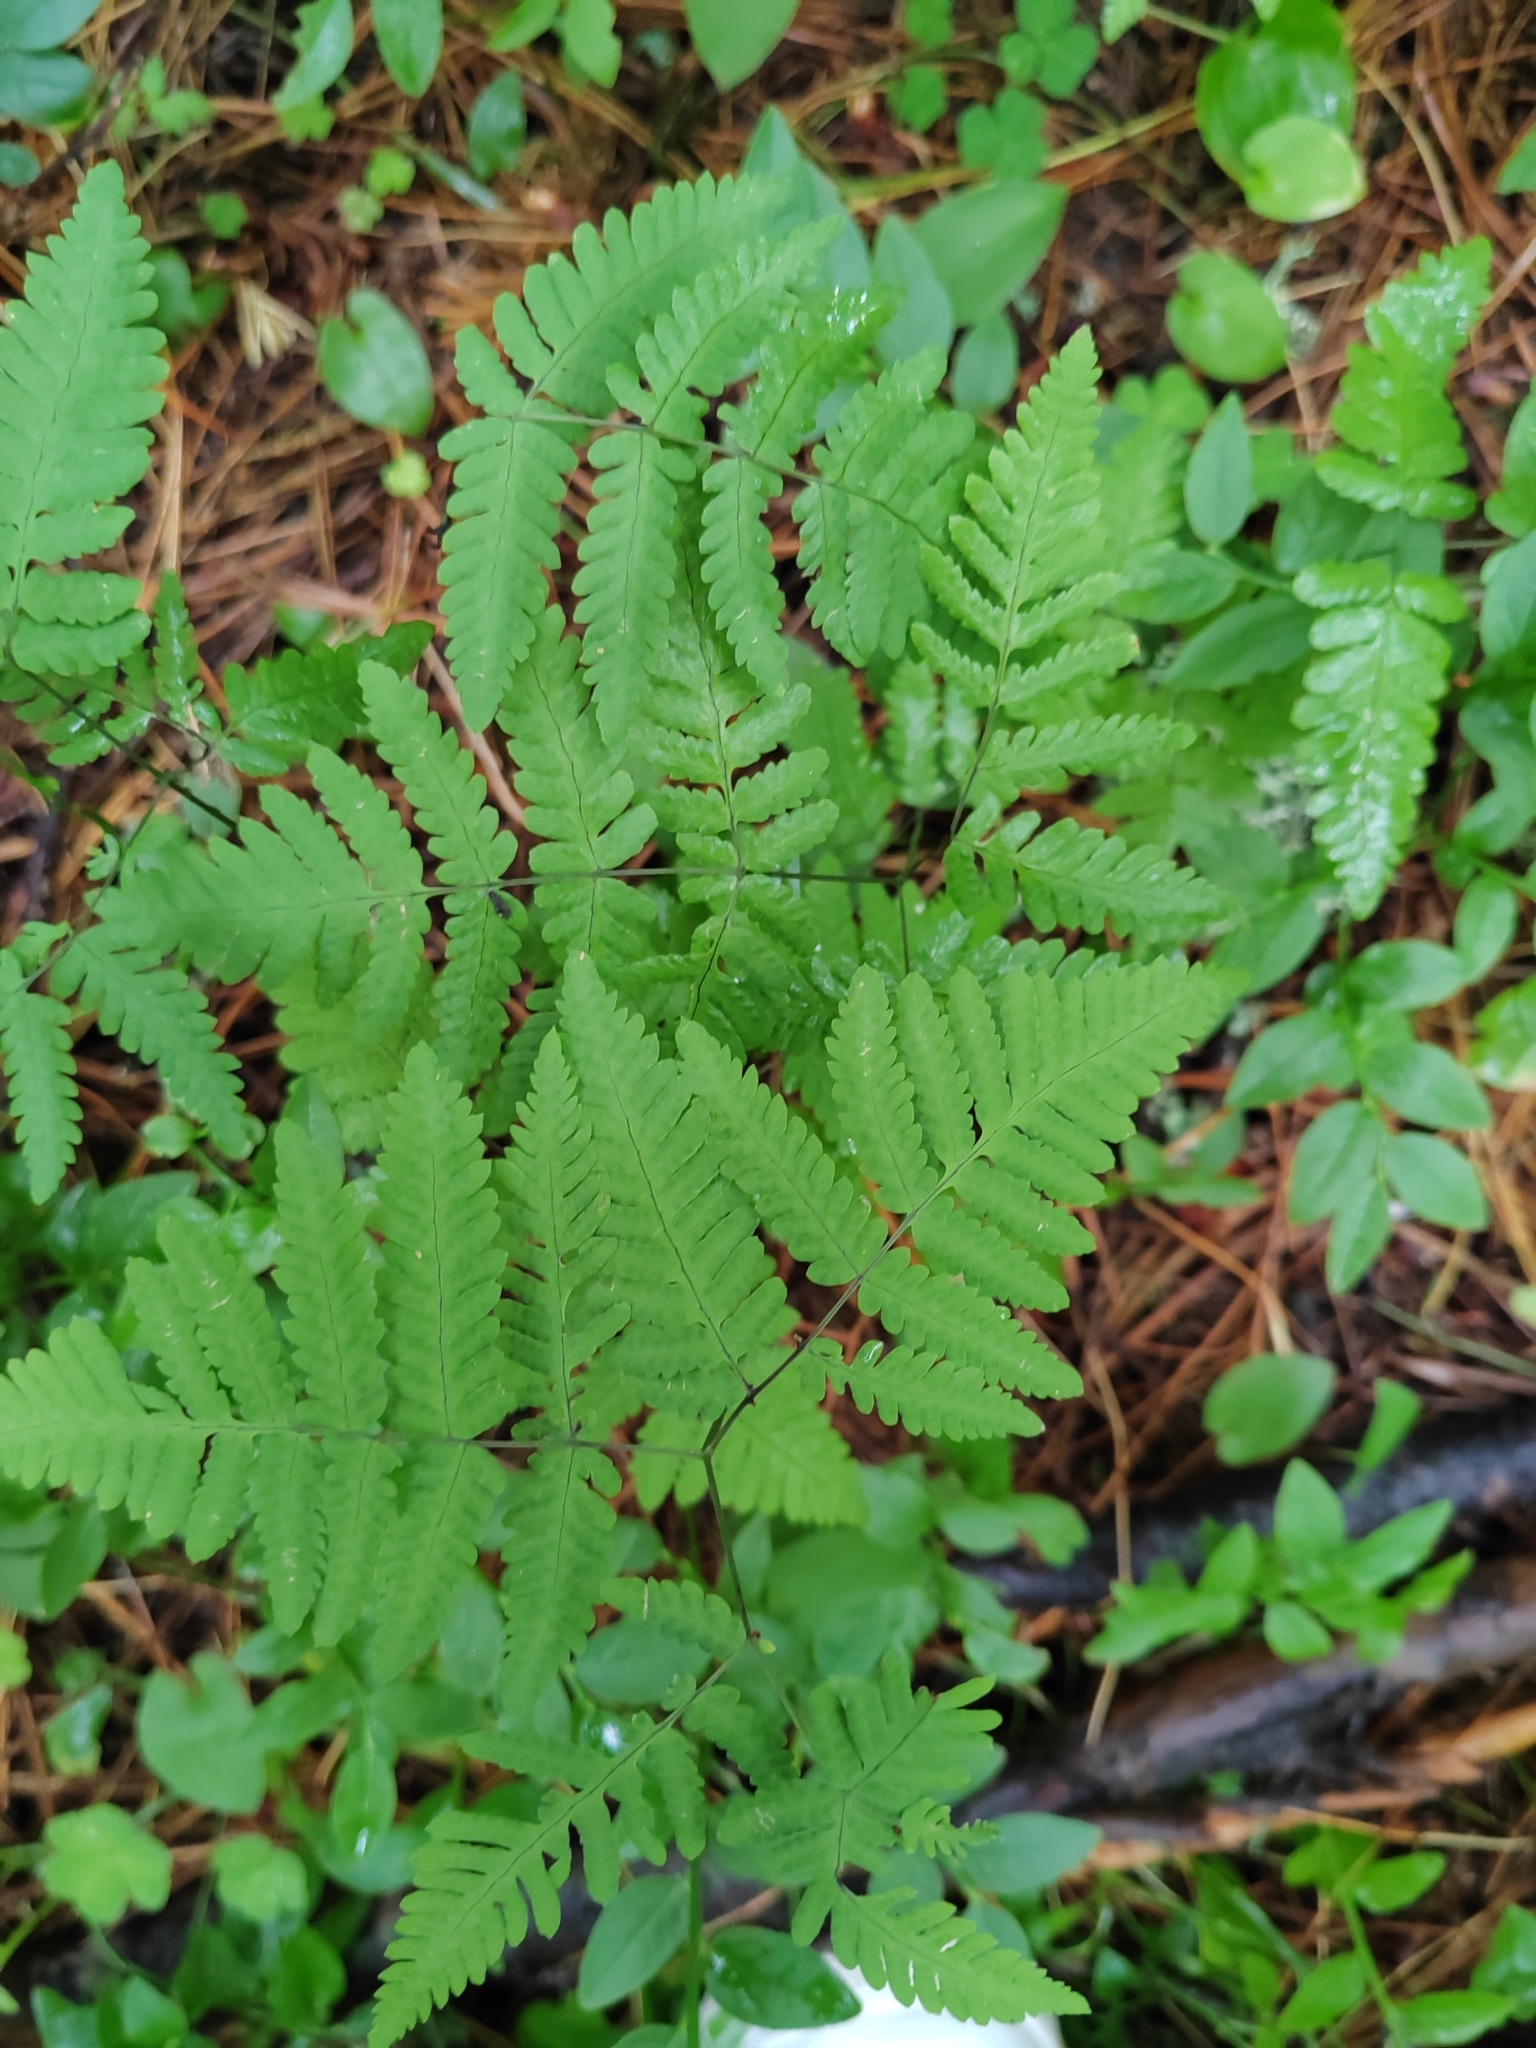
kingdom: Plantae
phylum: Tracheophyta
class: Polypodiopsida
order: Polypodiales
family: Cystopteridaceae
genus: Gymnocarpium
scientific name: Gymnocarpium dryopteris
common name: Oak fern
